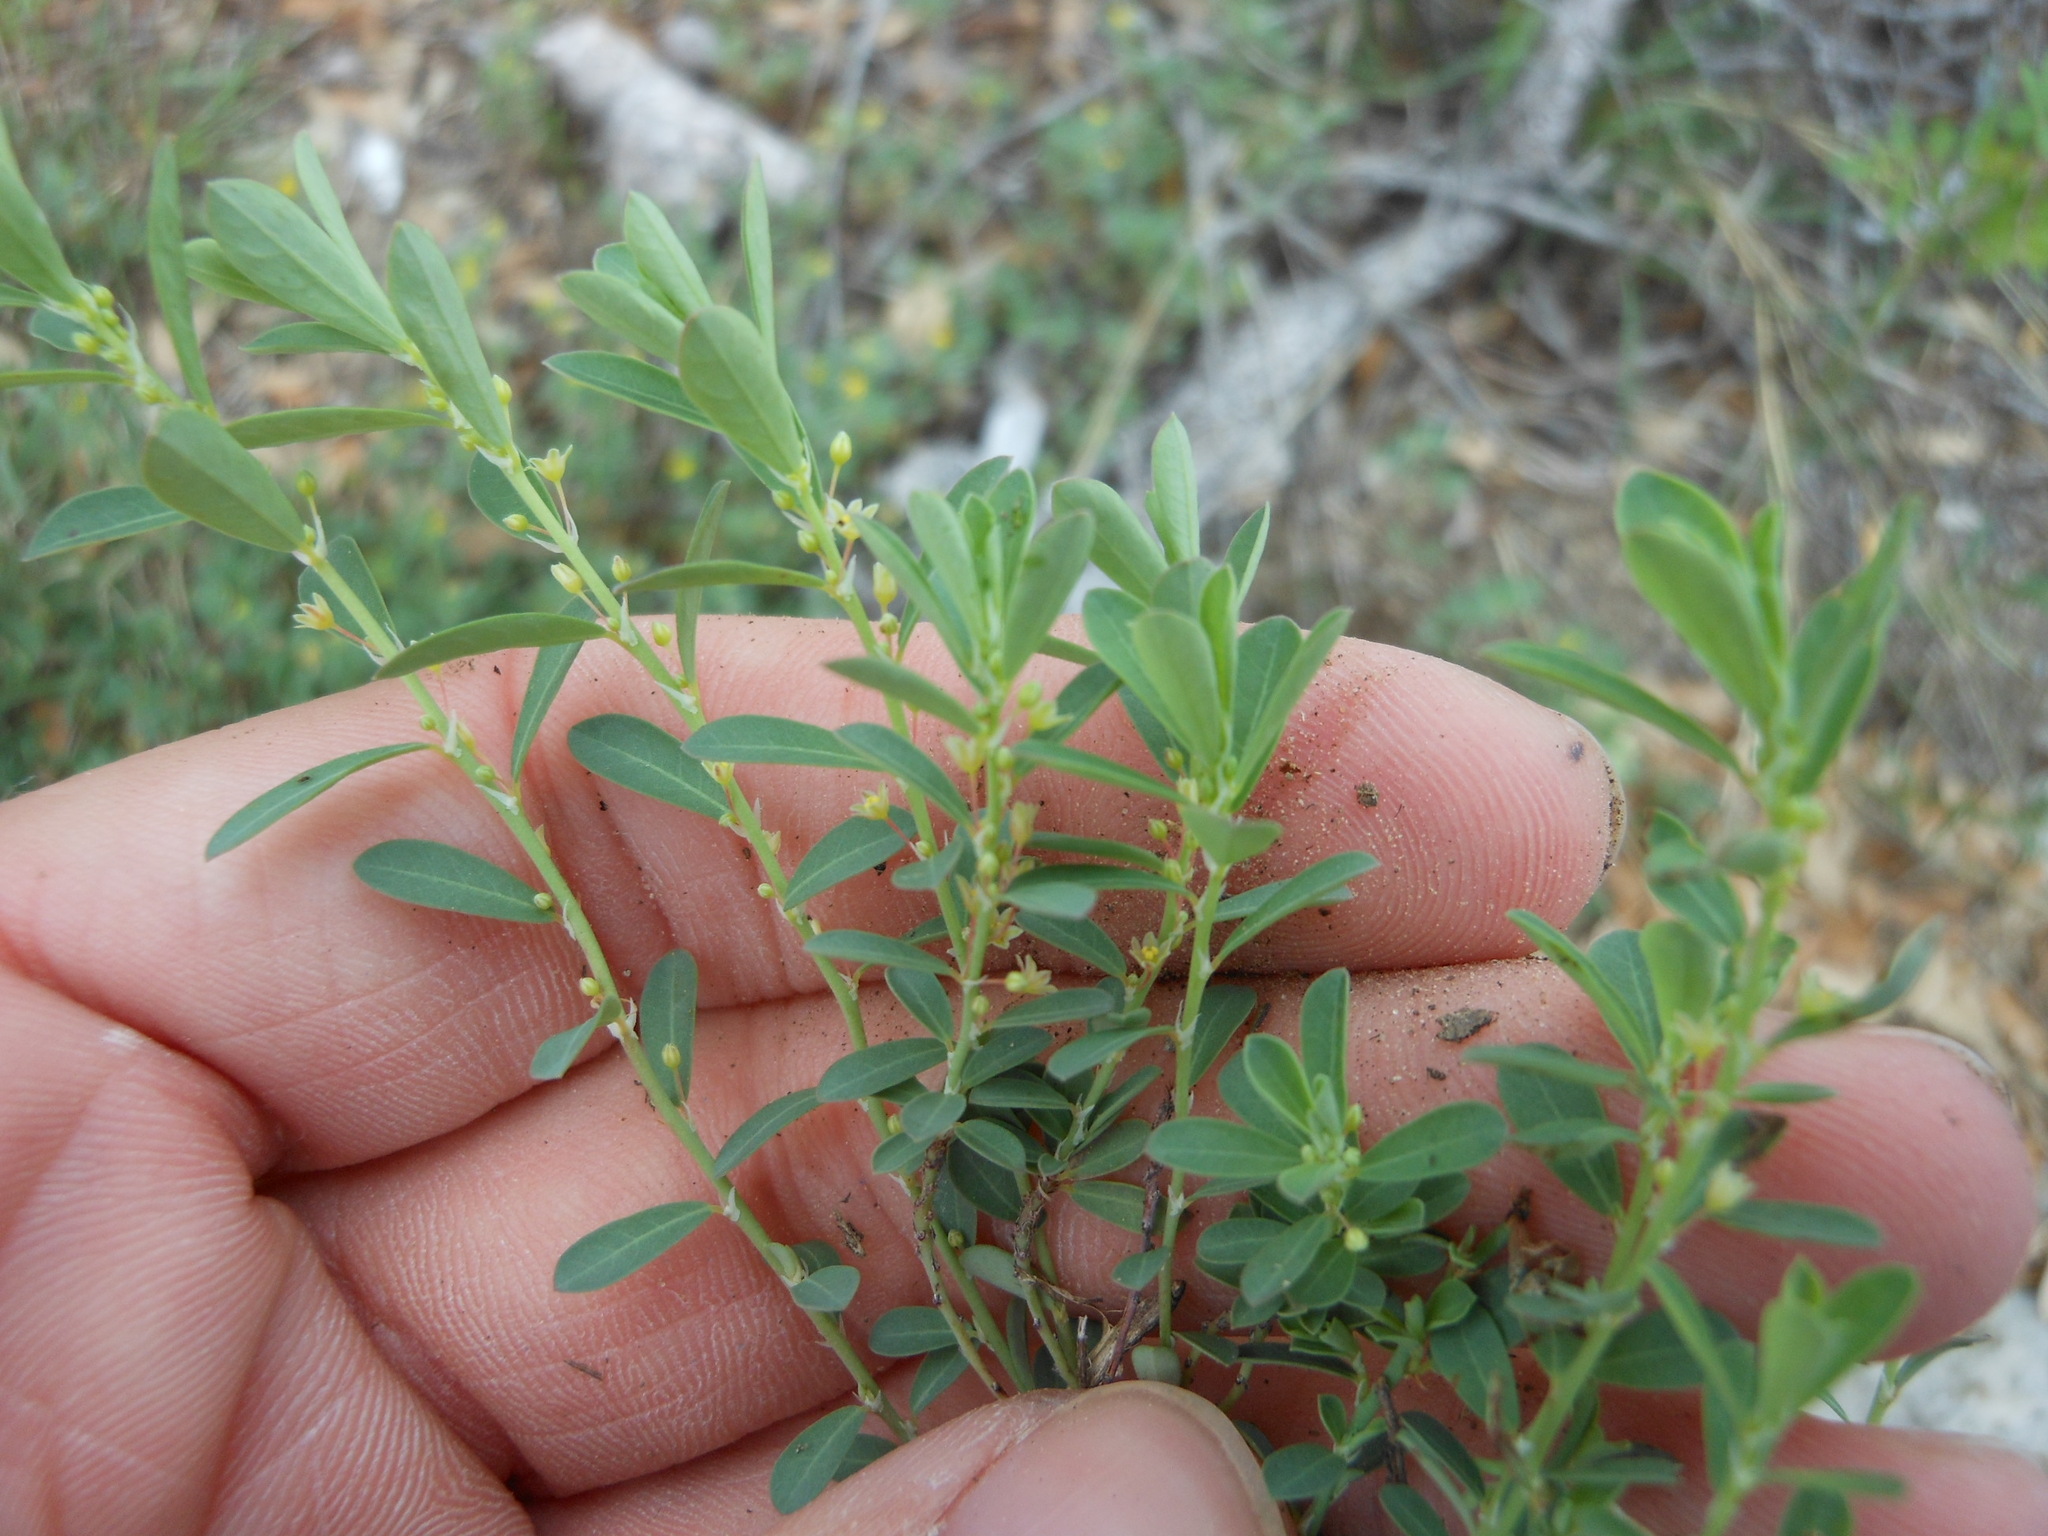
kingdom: Plantae
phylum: Tracheophyta
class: Magnoliopsida
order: Malpighiales
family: Phyllanthaceae
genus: Phyllanthus
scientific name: Phyllanthus polygonoides
